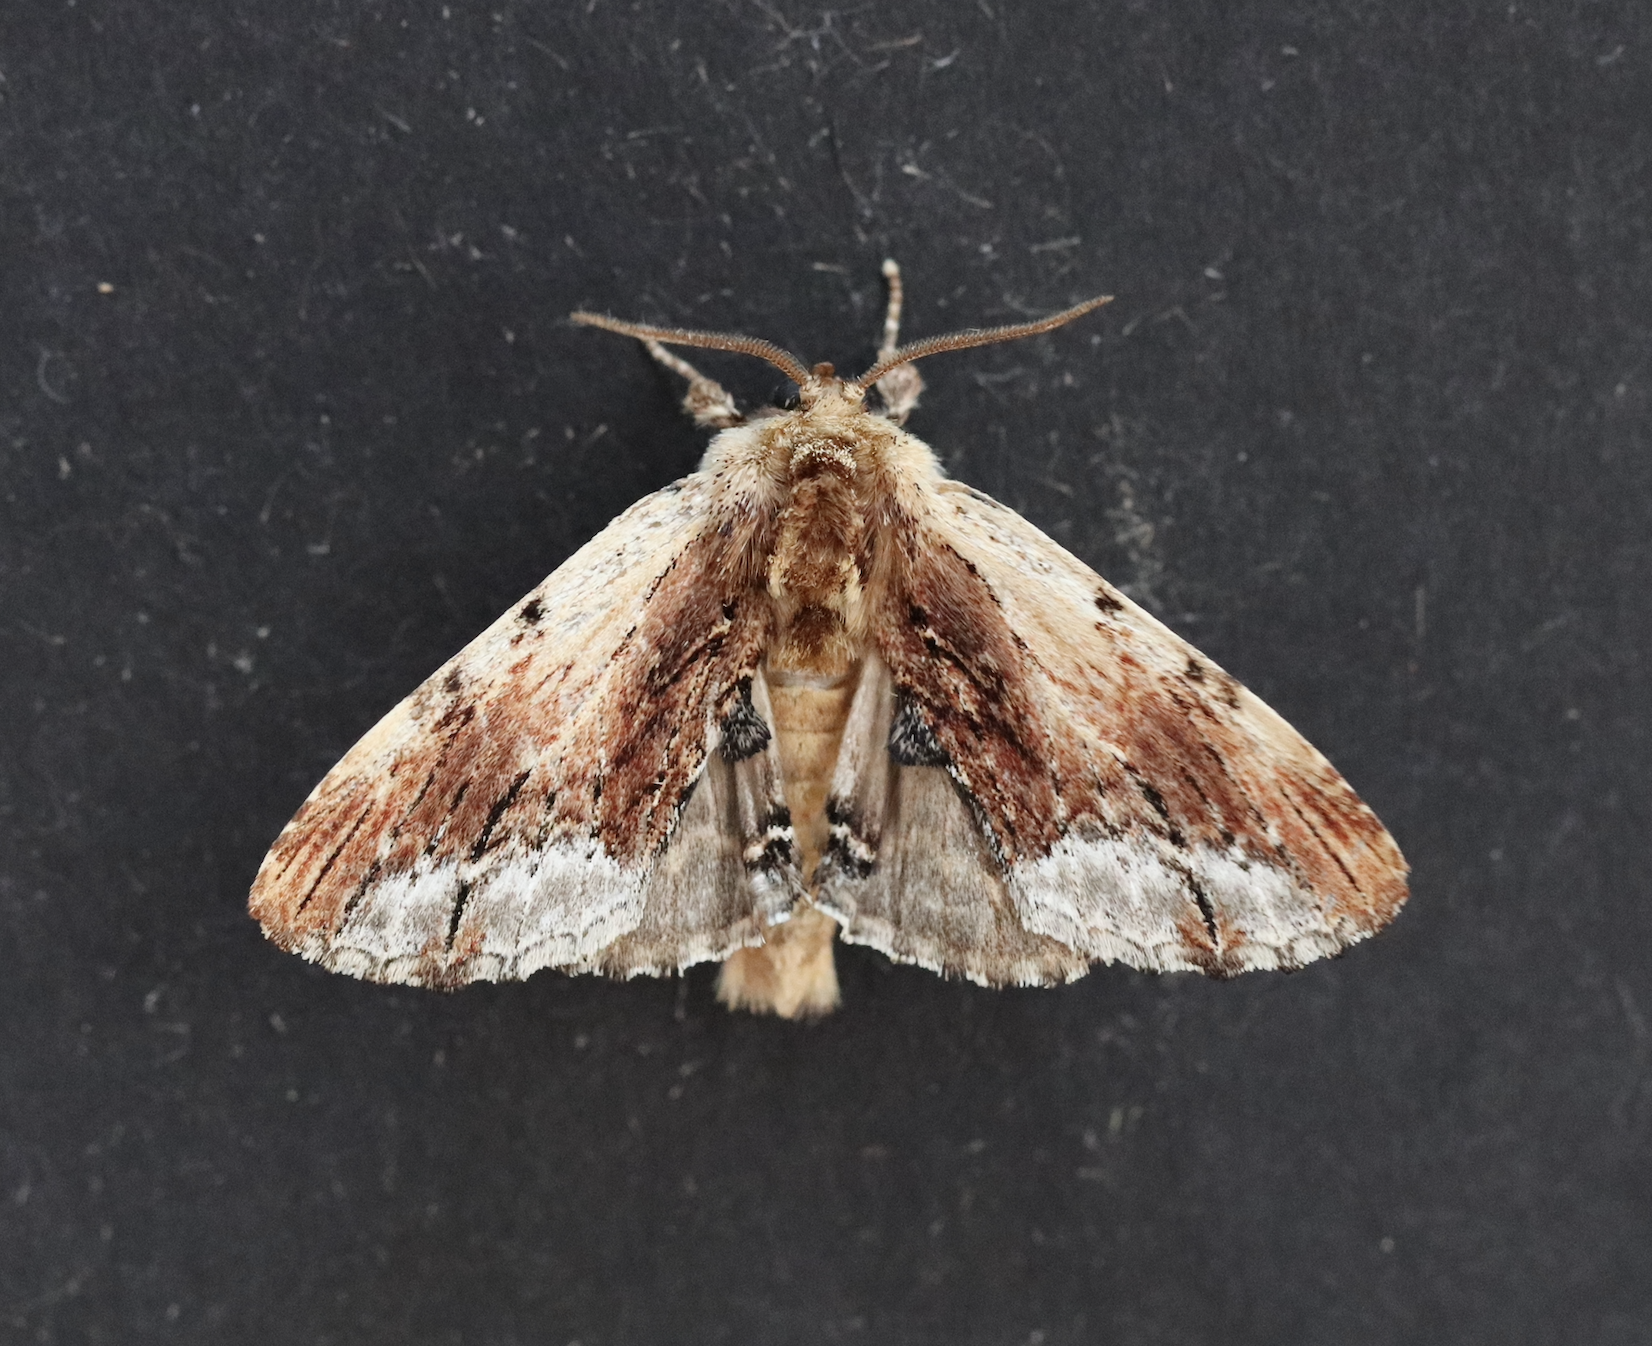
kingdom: Animalia
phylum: Arthropoda
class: Insecta
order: Lepidoptera
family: Notodontidae
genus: Ptilodon
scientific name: Ptilodon cucullina
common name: Maple prominent
